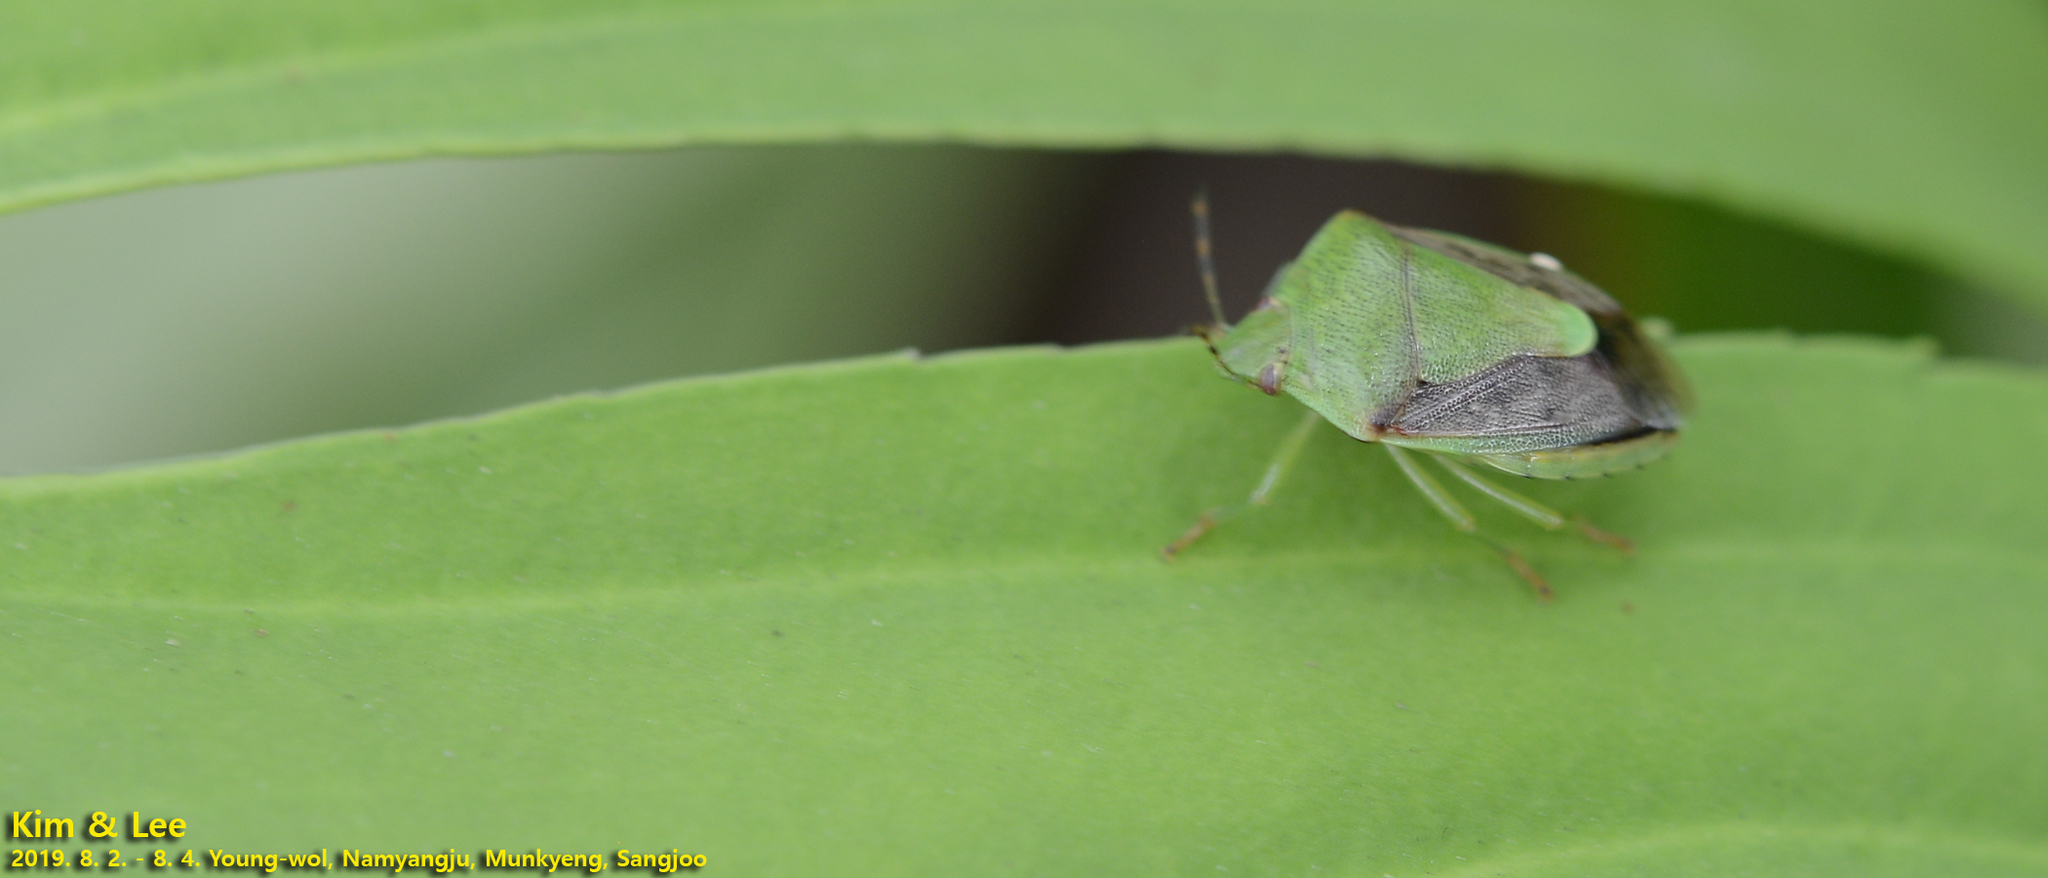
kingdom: Animalia
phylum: Arthropoda
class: Insecta
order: Hemiptera
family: Pentatomidae
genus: Plautia
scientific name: Plautia stali
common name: Stink bug
